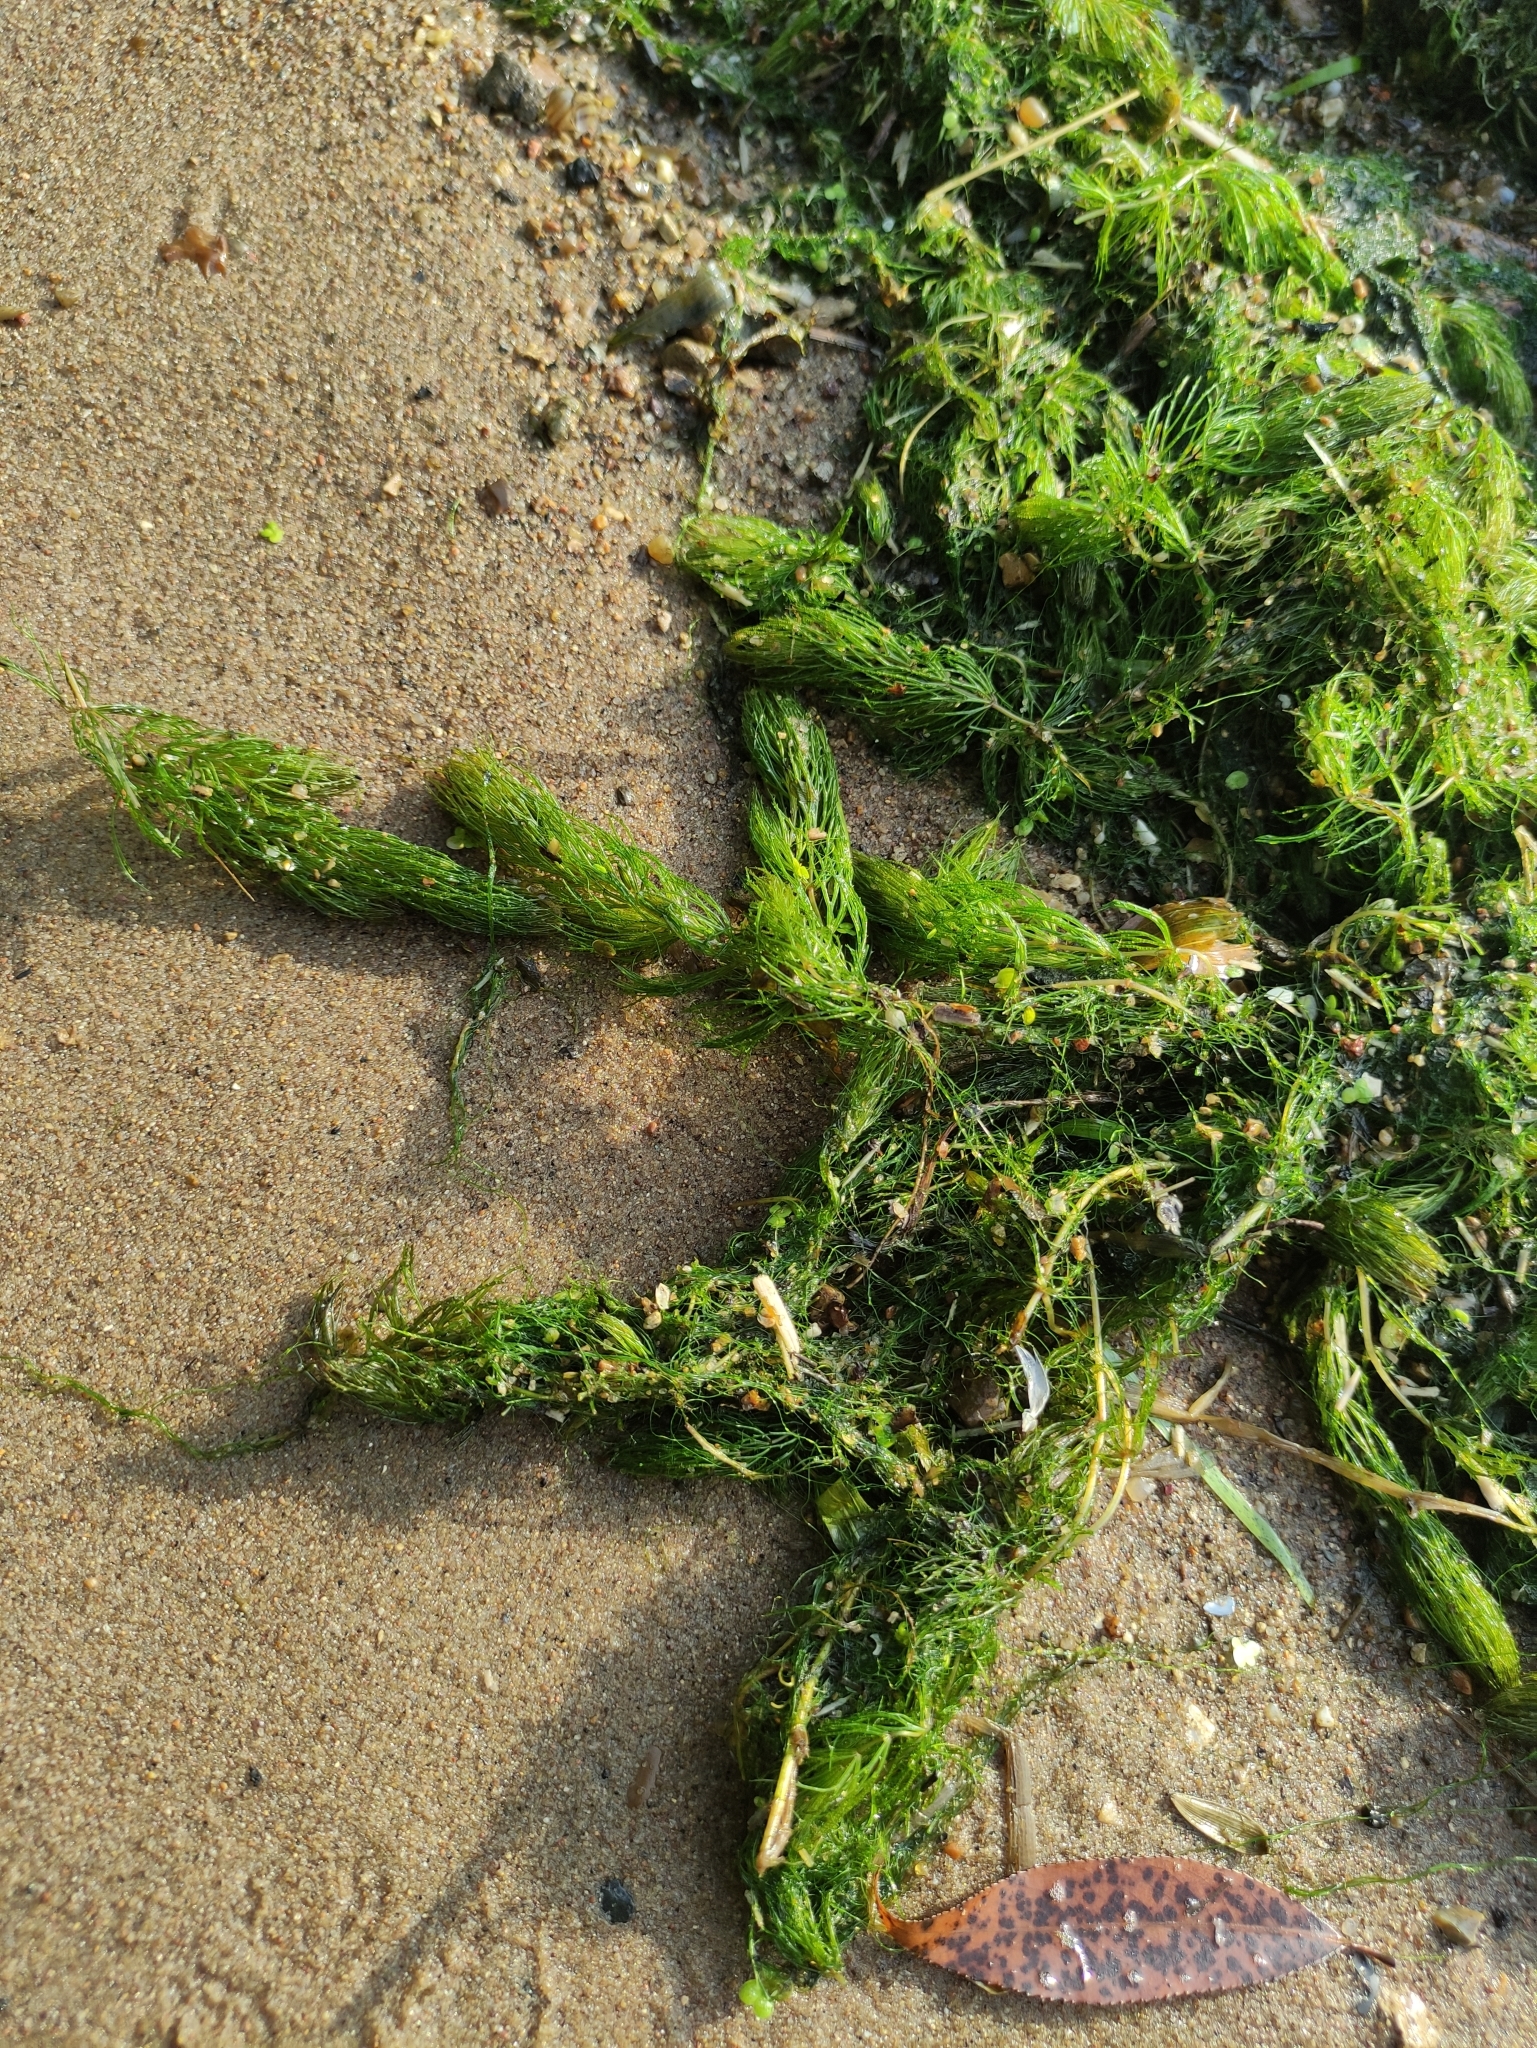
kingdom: Plantae
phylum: Tracheophyta
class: Magnoliopsida
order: Ceratophyllales
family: Ceratophyllaceae
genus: Ceratophyllum
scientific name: Ceratophyllum demersum
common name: Rigid hornwort
